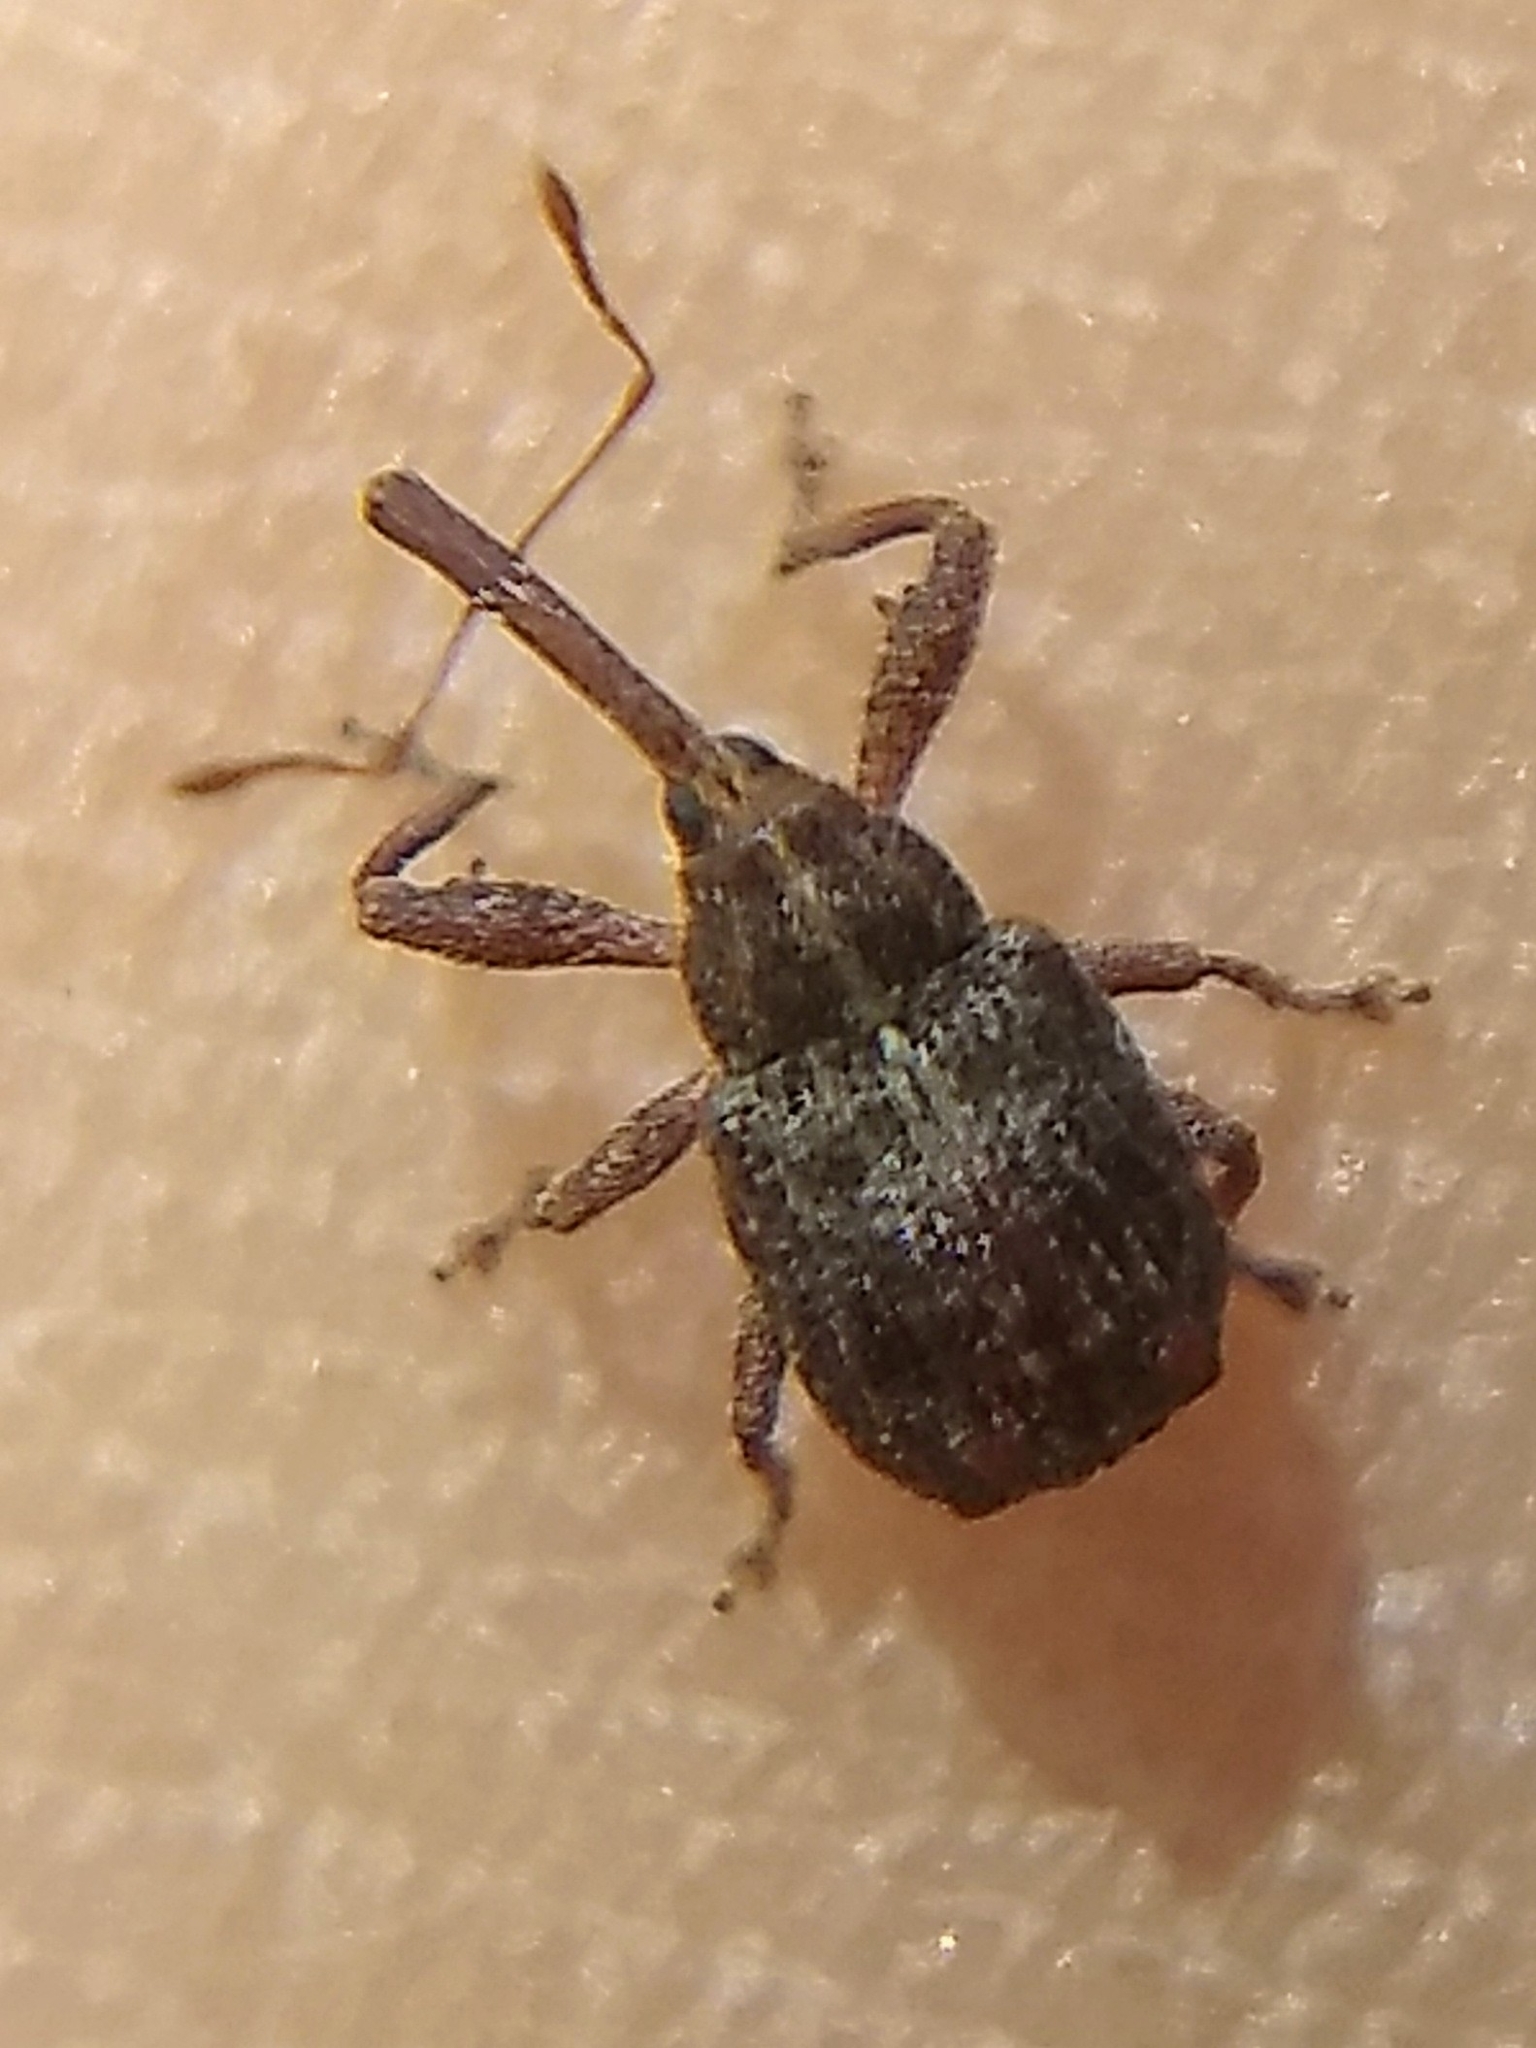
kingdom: Animalia
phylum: Arthropoda
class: Insecta
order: Coleoptera
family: Curculionidae
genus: Anthonomus
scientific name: Anthonomus quadrigibbus
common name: Apple curculio
